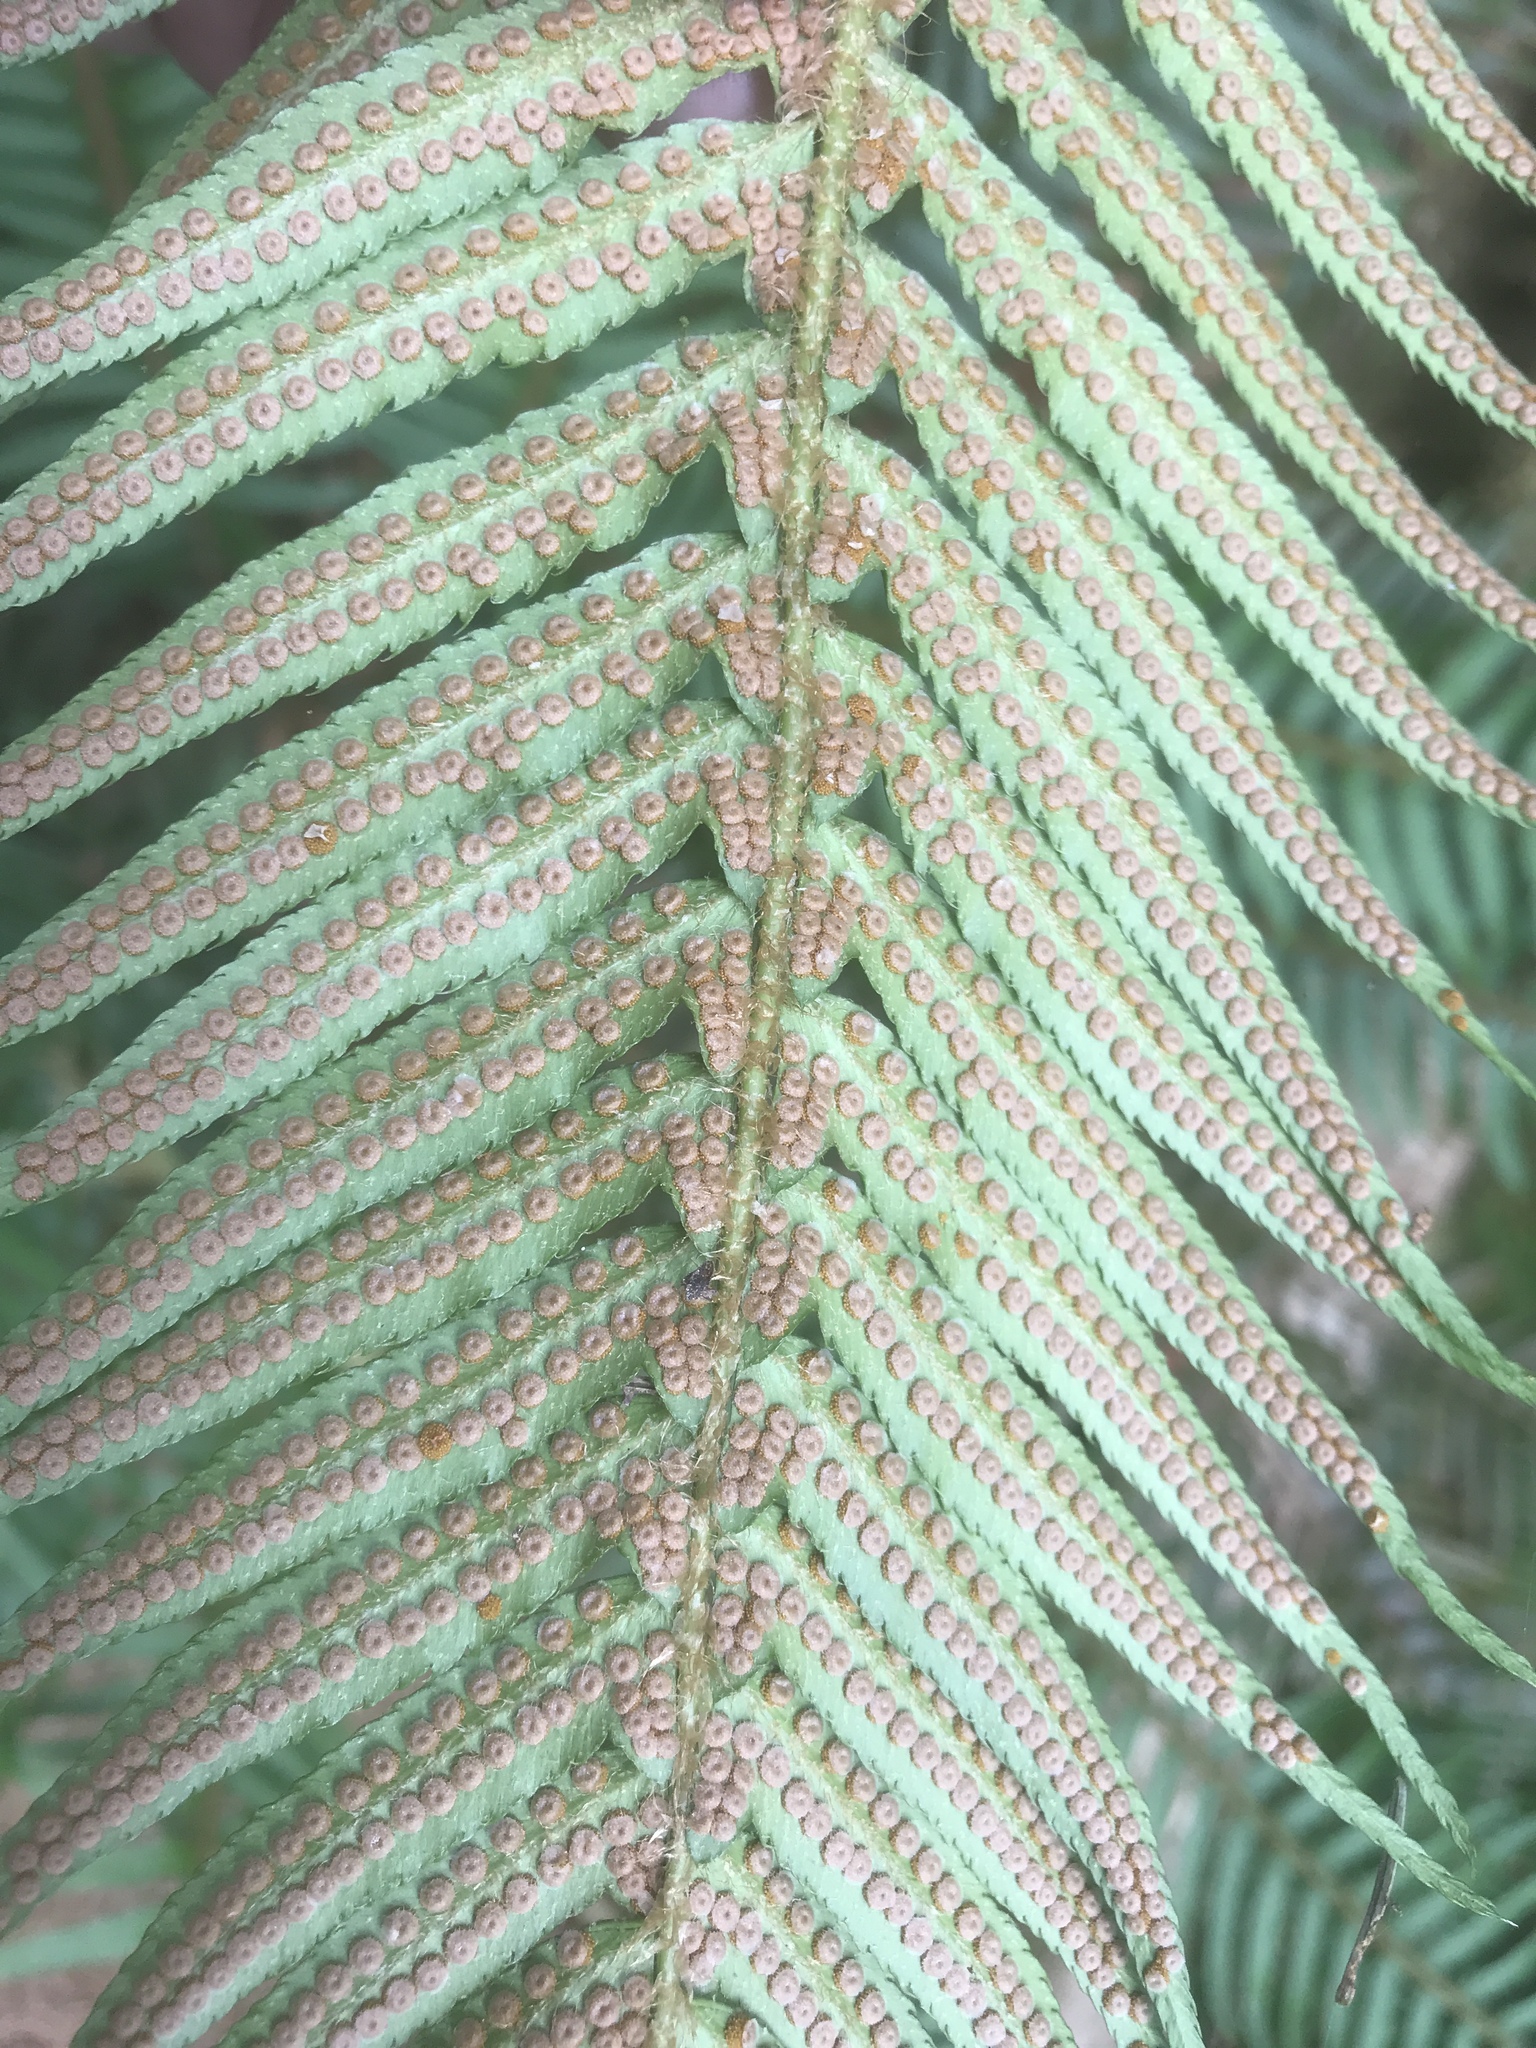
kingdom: Plantae
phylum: Tracheophyta
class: Polypodiopsida
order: Polypodiales
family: Dryopteridaceae
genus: Polystichum
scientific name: Polystichum munitum
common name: Western sword-fern
